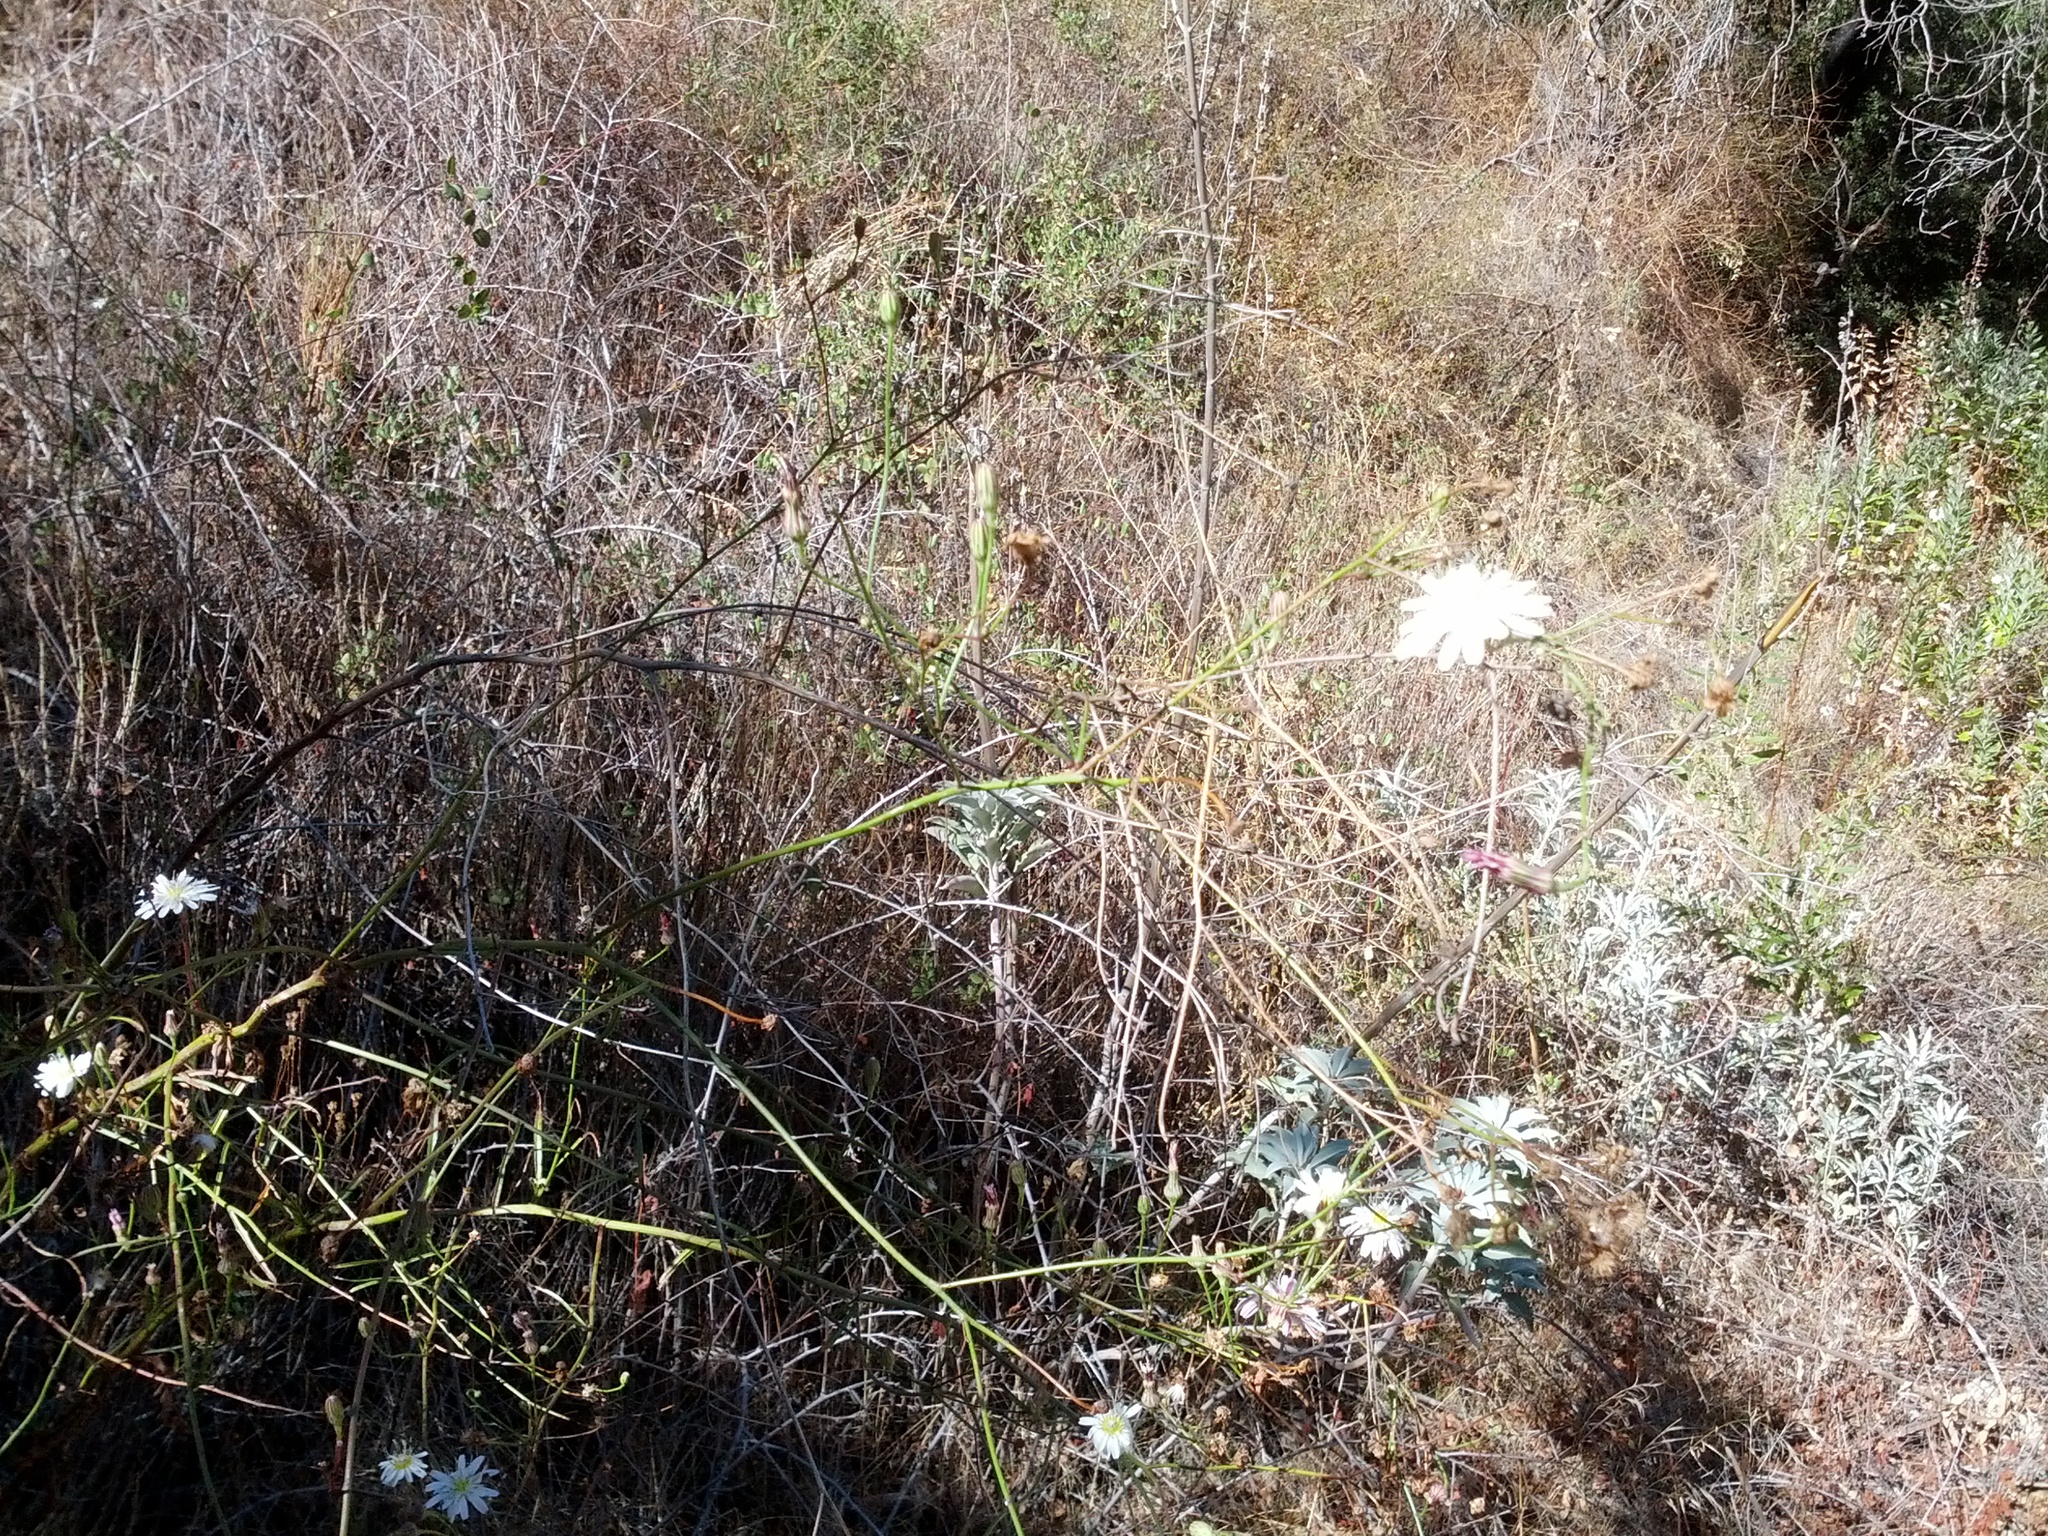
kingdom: Plantae
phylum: Tracheophyta
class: Magnoliopsida
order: Asterales
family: Asteraceae
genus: Malacothrix
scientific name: Malacothrix saxatilis
